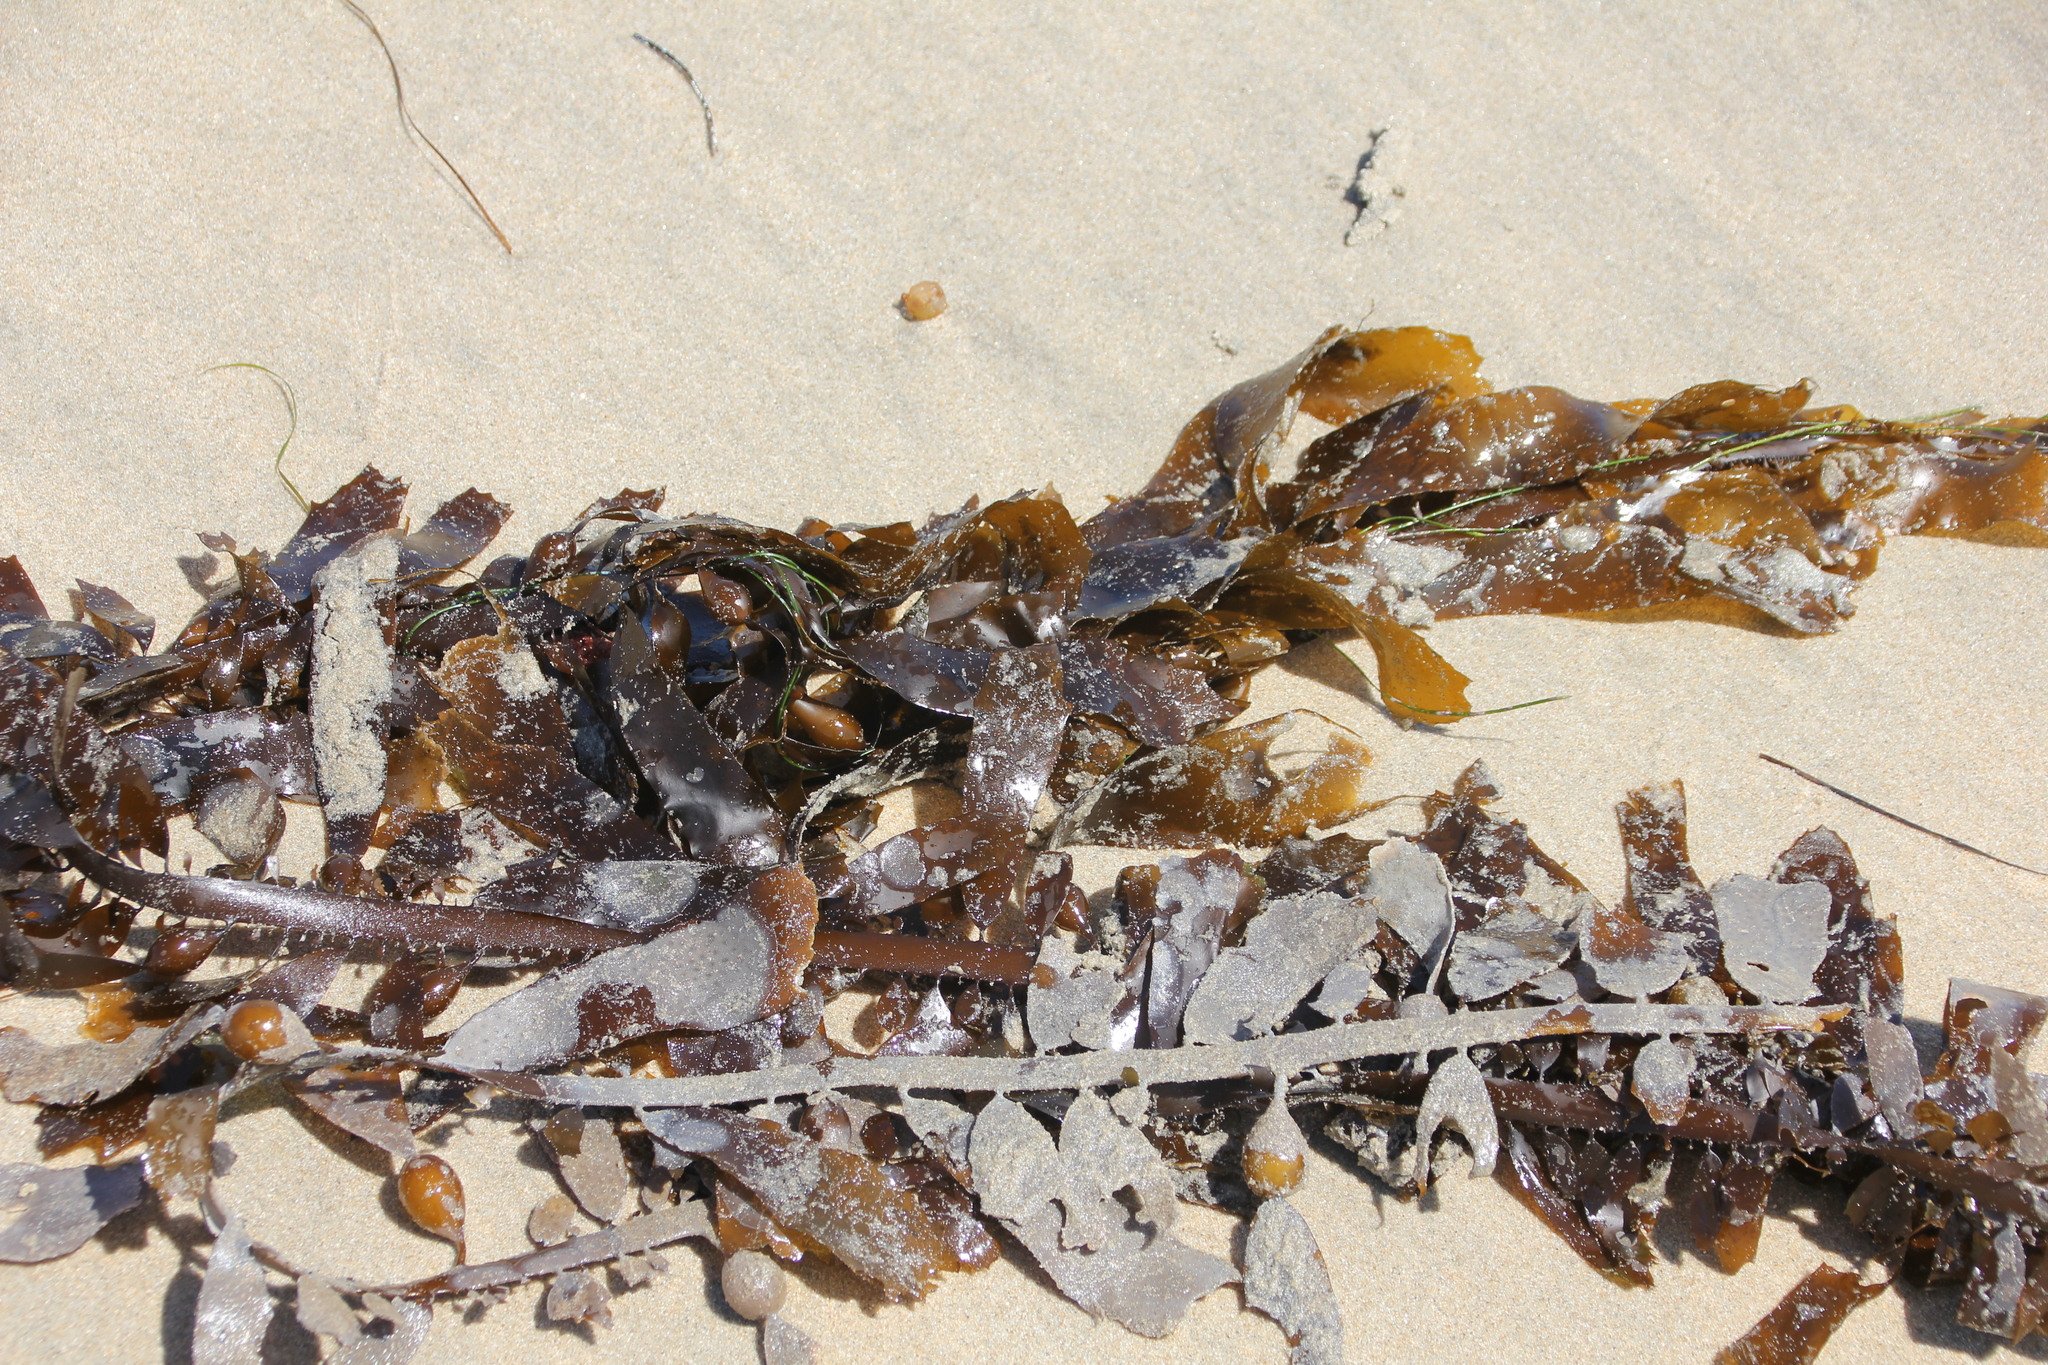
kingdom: Chromista
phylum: Ochrophyta
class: Phaeophyceae
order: Laminariales
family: Lessoniaceae
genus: Egregia
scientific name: Egregia menziesii
